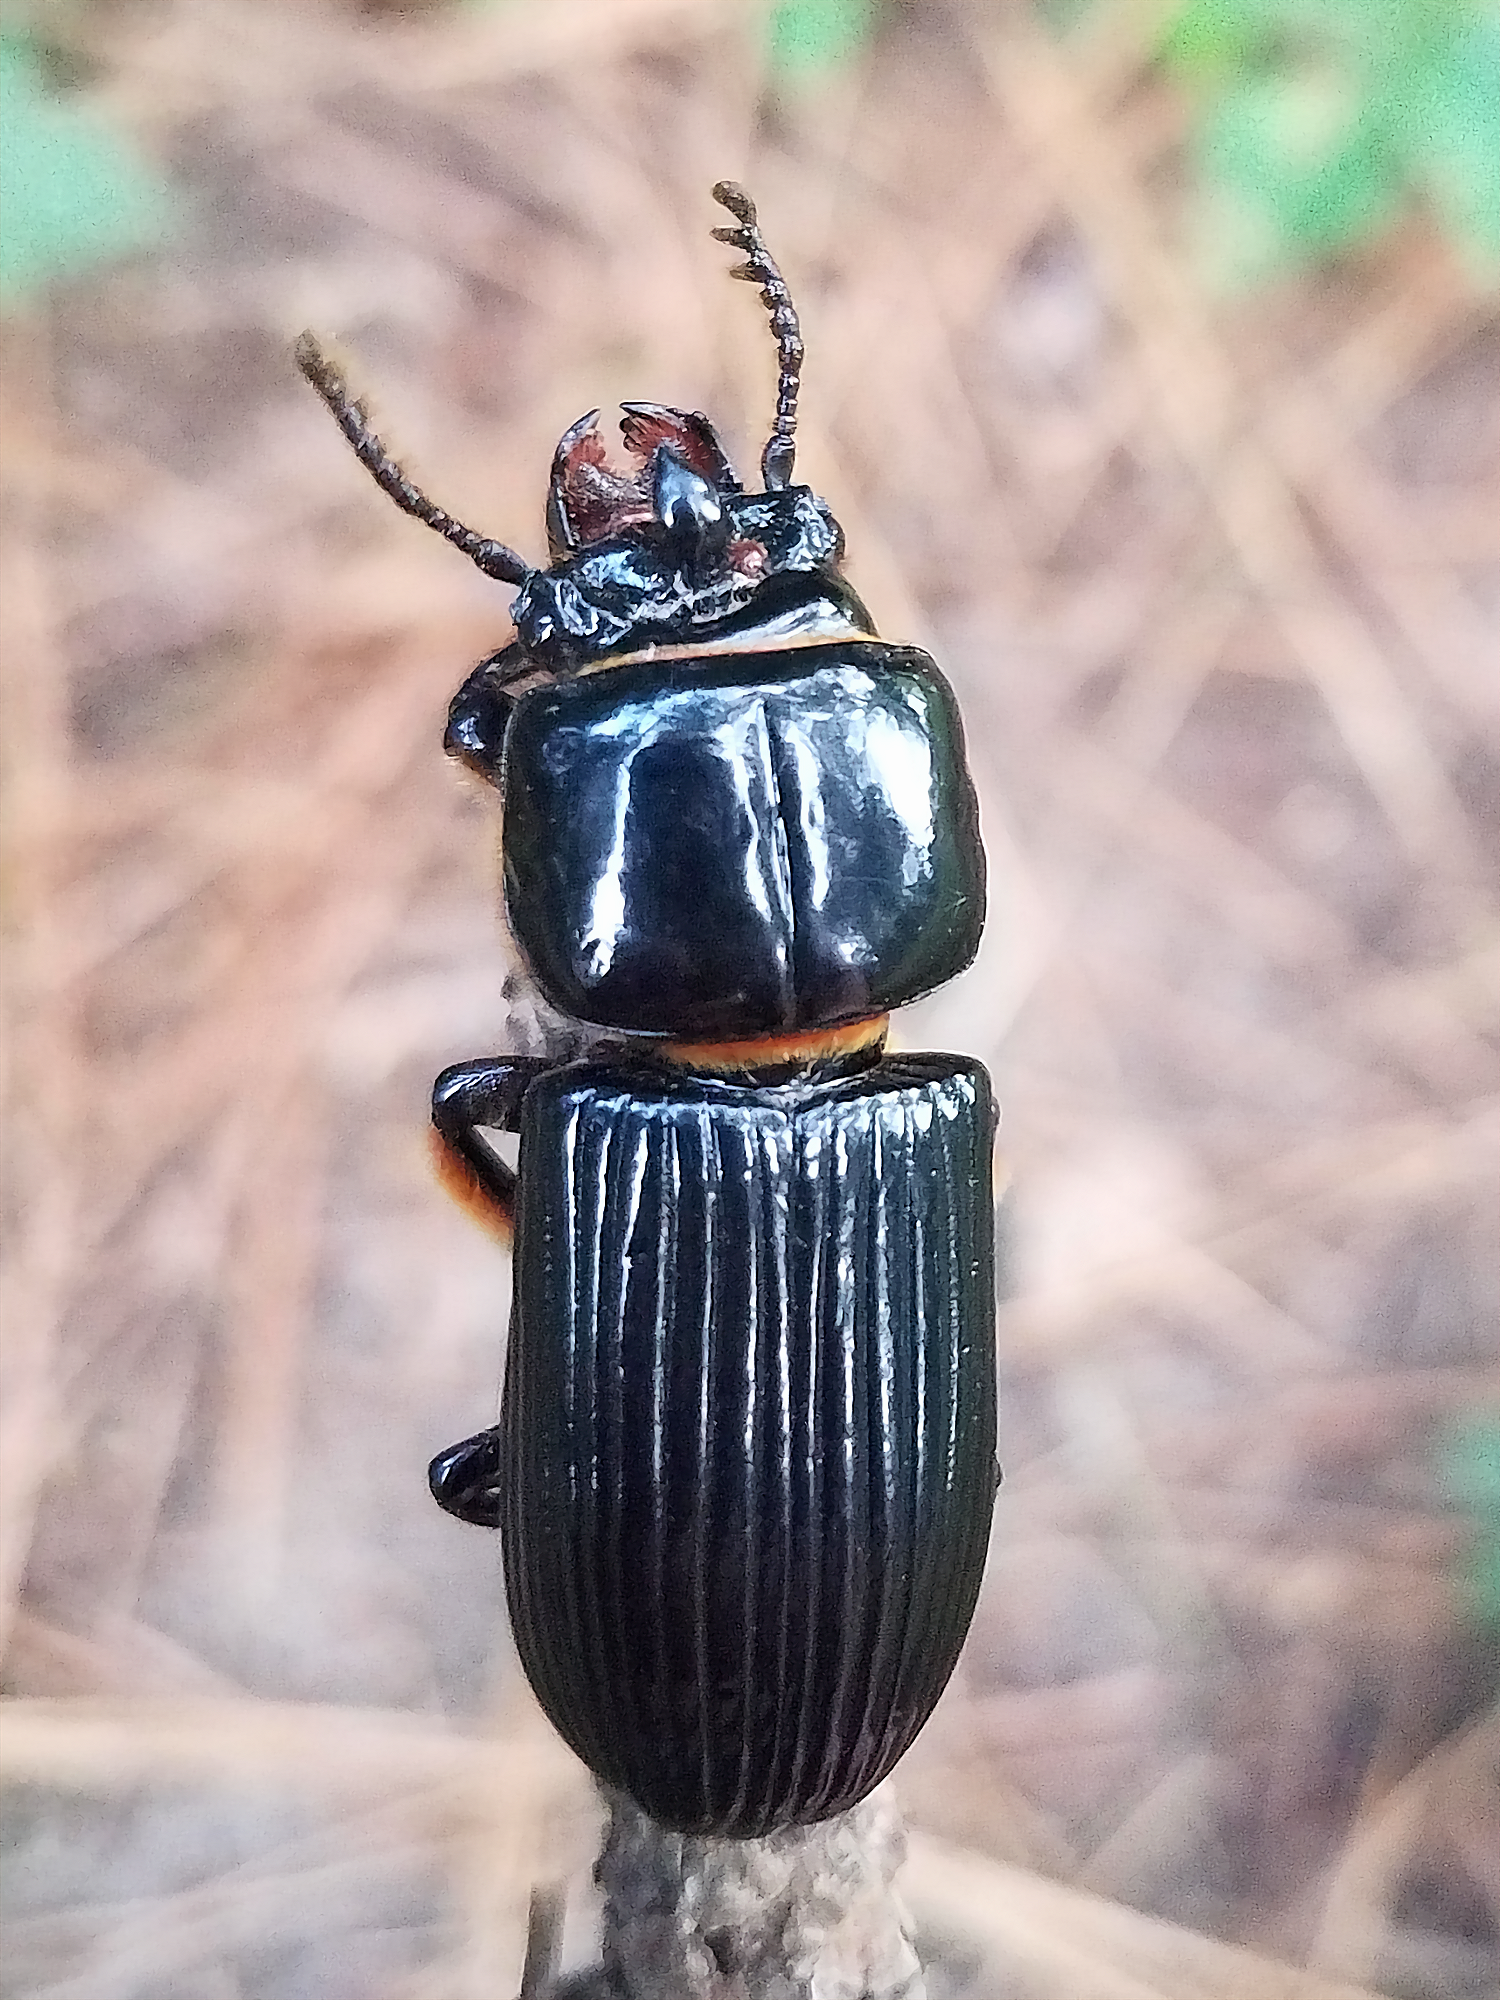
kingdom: Animalia
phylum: Arthropoda
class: Insecta
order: Coleoptera
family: Passalidae
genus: Odontotaenius
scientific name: Odontotaenius disjunctus
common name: Patent leather beetle
